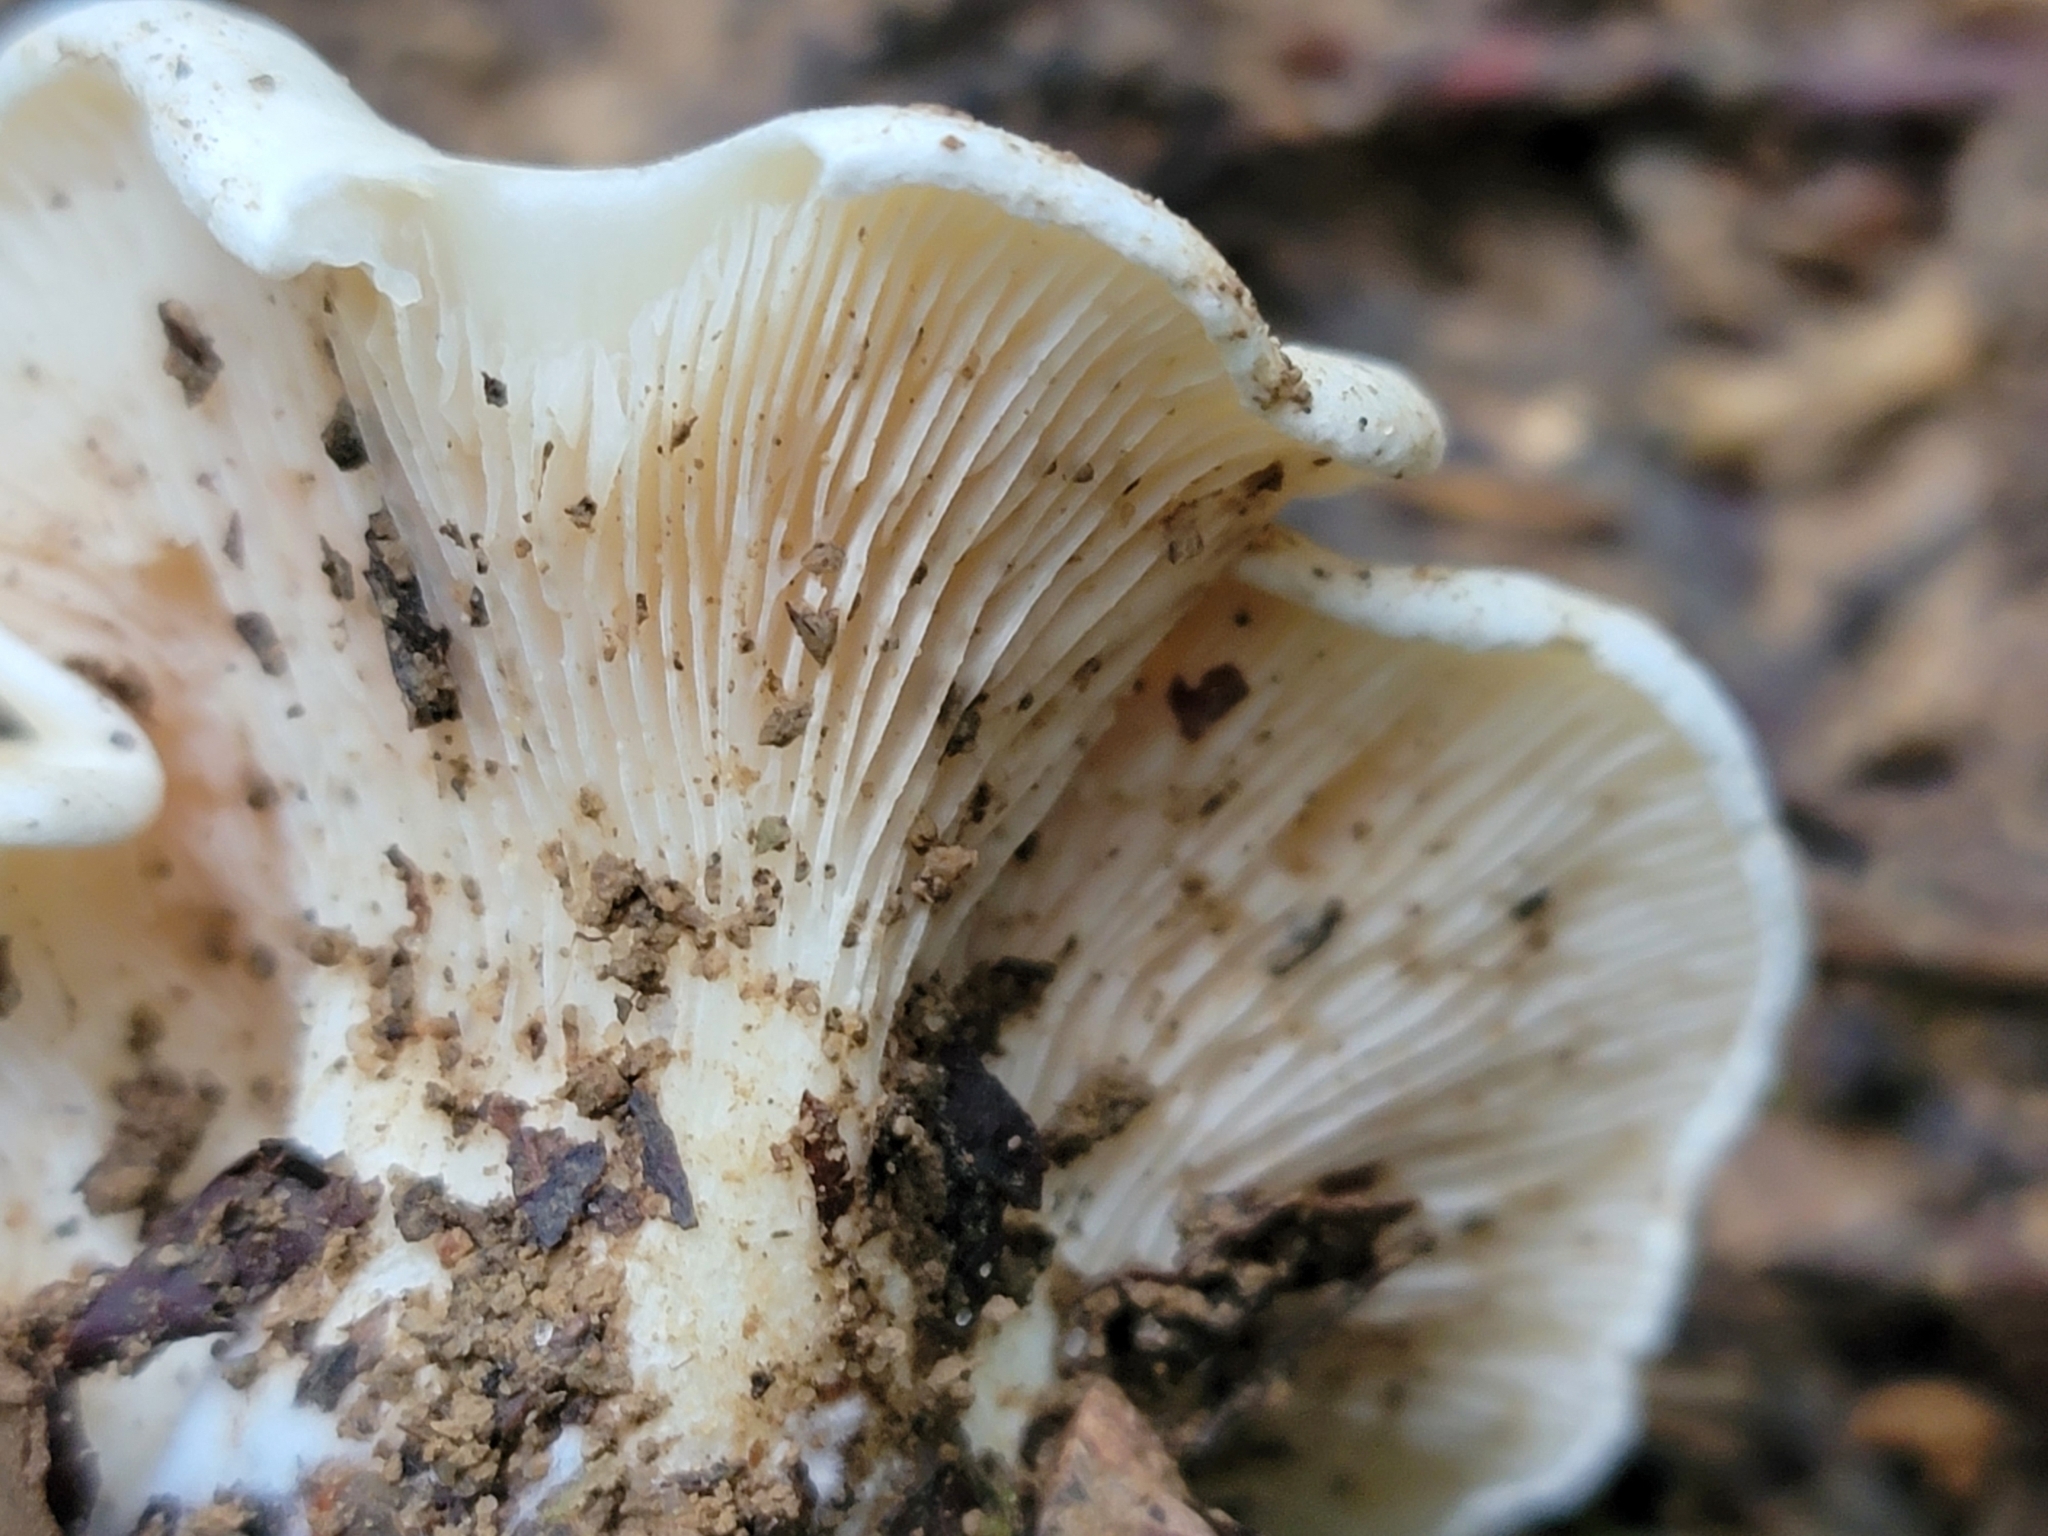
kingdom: Fungi
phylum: Basidiomycota
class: Agaricomycetes
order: Agaricales
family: Entolomataceae
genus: Clitopilus
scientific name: Clitopilus prunulus
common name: The miller
